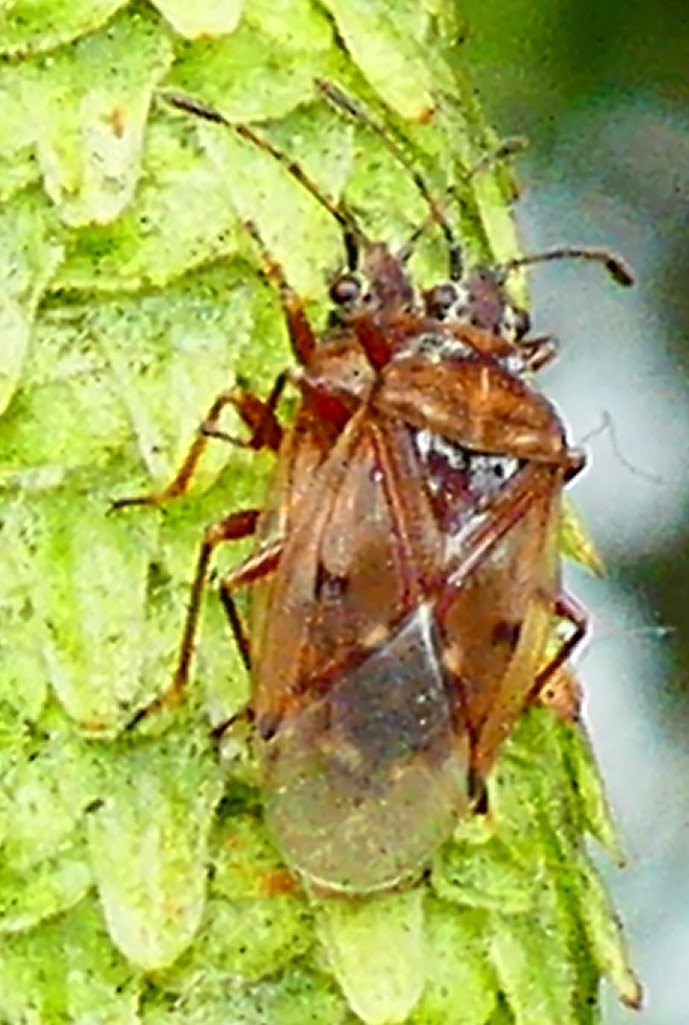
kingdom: Animalia
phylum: Arthropoda
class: Insecta
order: Hemiptera
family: Lygaeidae
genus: Kleidocerys
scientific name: Kleidocerys resedae
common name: Birch catkin bug
